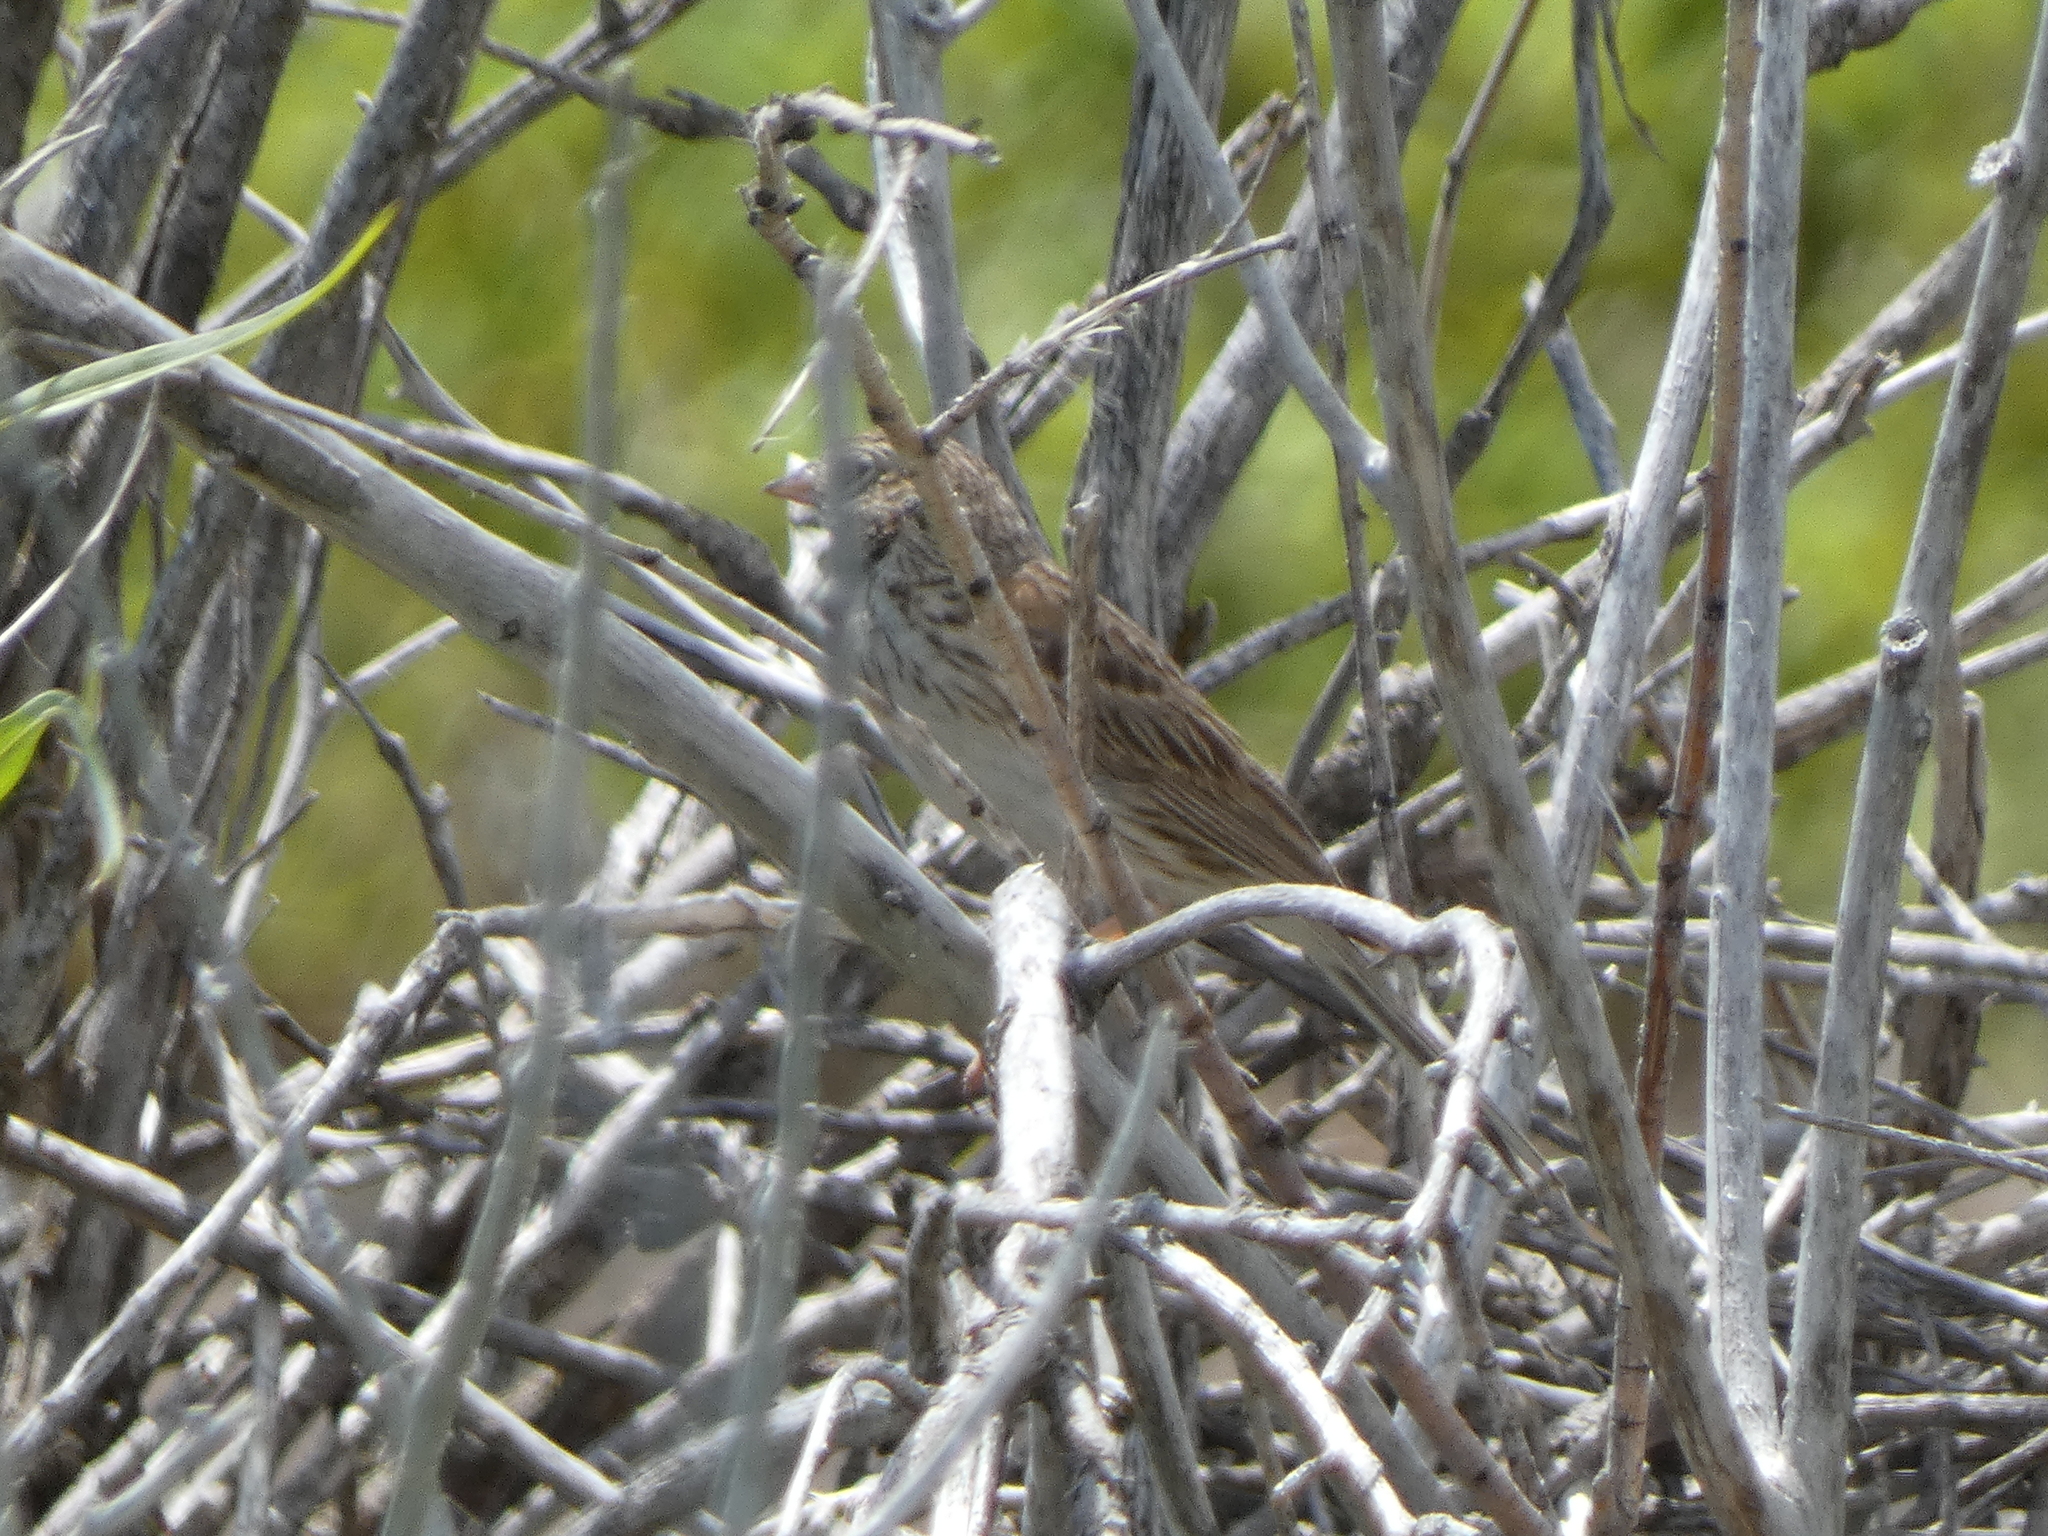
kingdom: Animalia
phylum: Chordata
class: Aves
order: Passeriformes
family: Passerellidae
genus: Pooecetes
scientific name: Pooecetes gramineus
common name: Vesper sparrow
